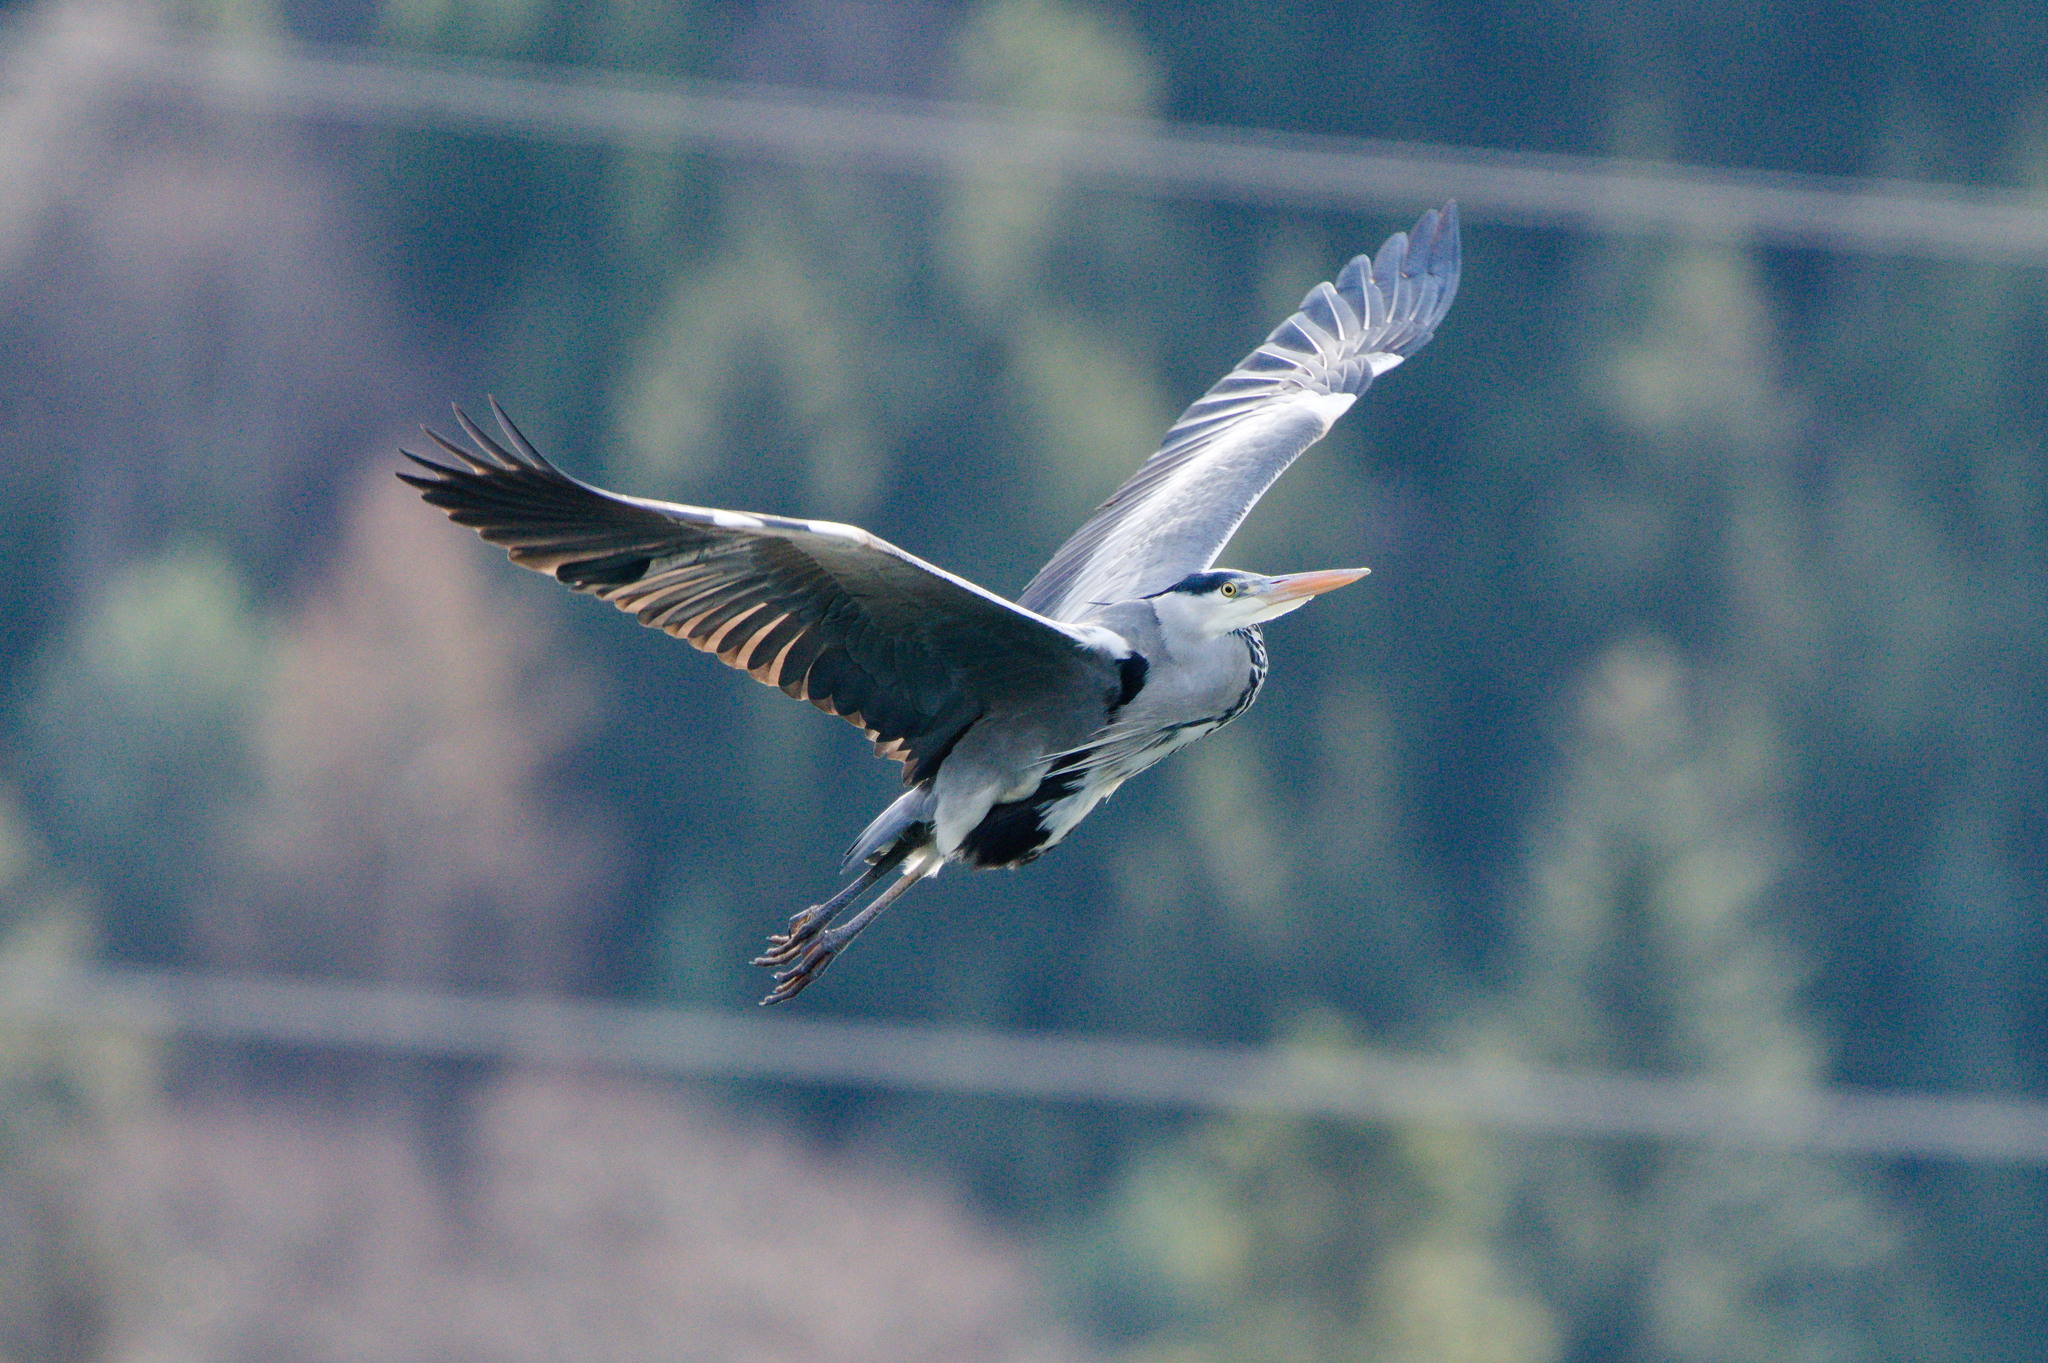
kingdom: Animalia
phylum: Chordata
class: Aves
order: Pelecaniformes
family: Ardeidae
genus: Ardea
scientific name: Ardea cinerea
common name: Grey heron
